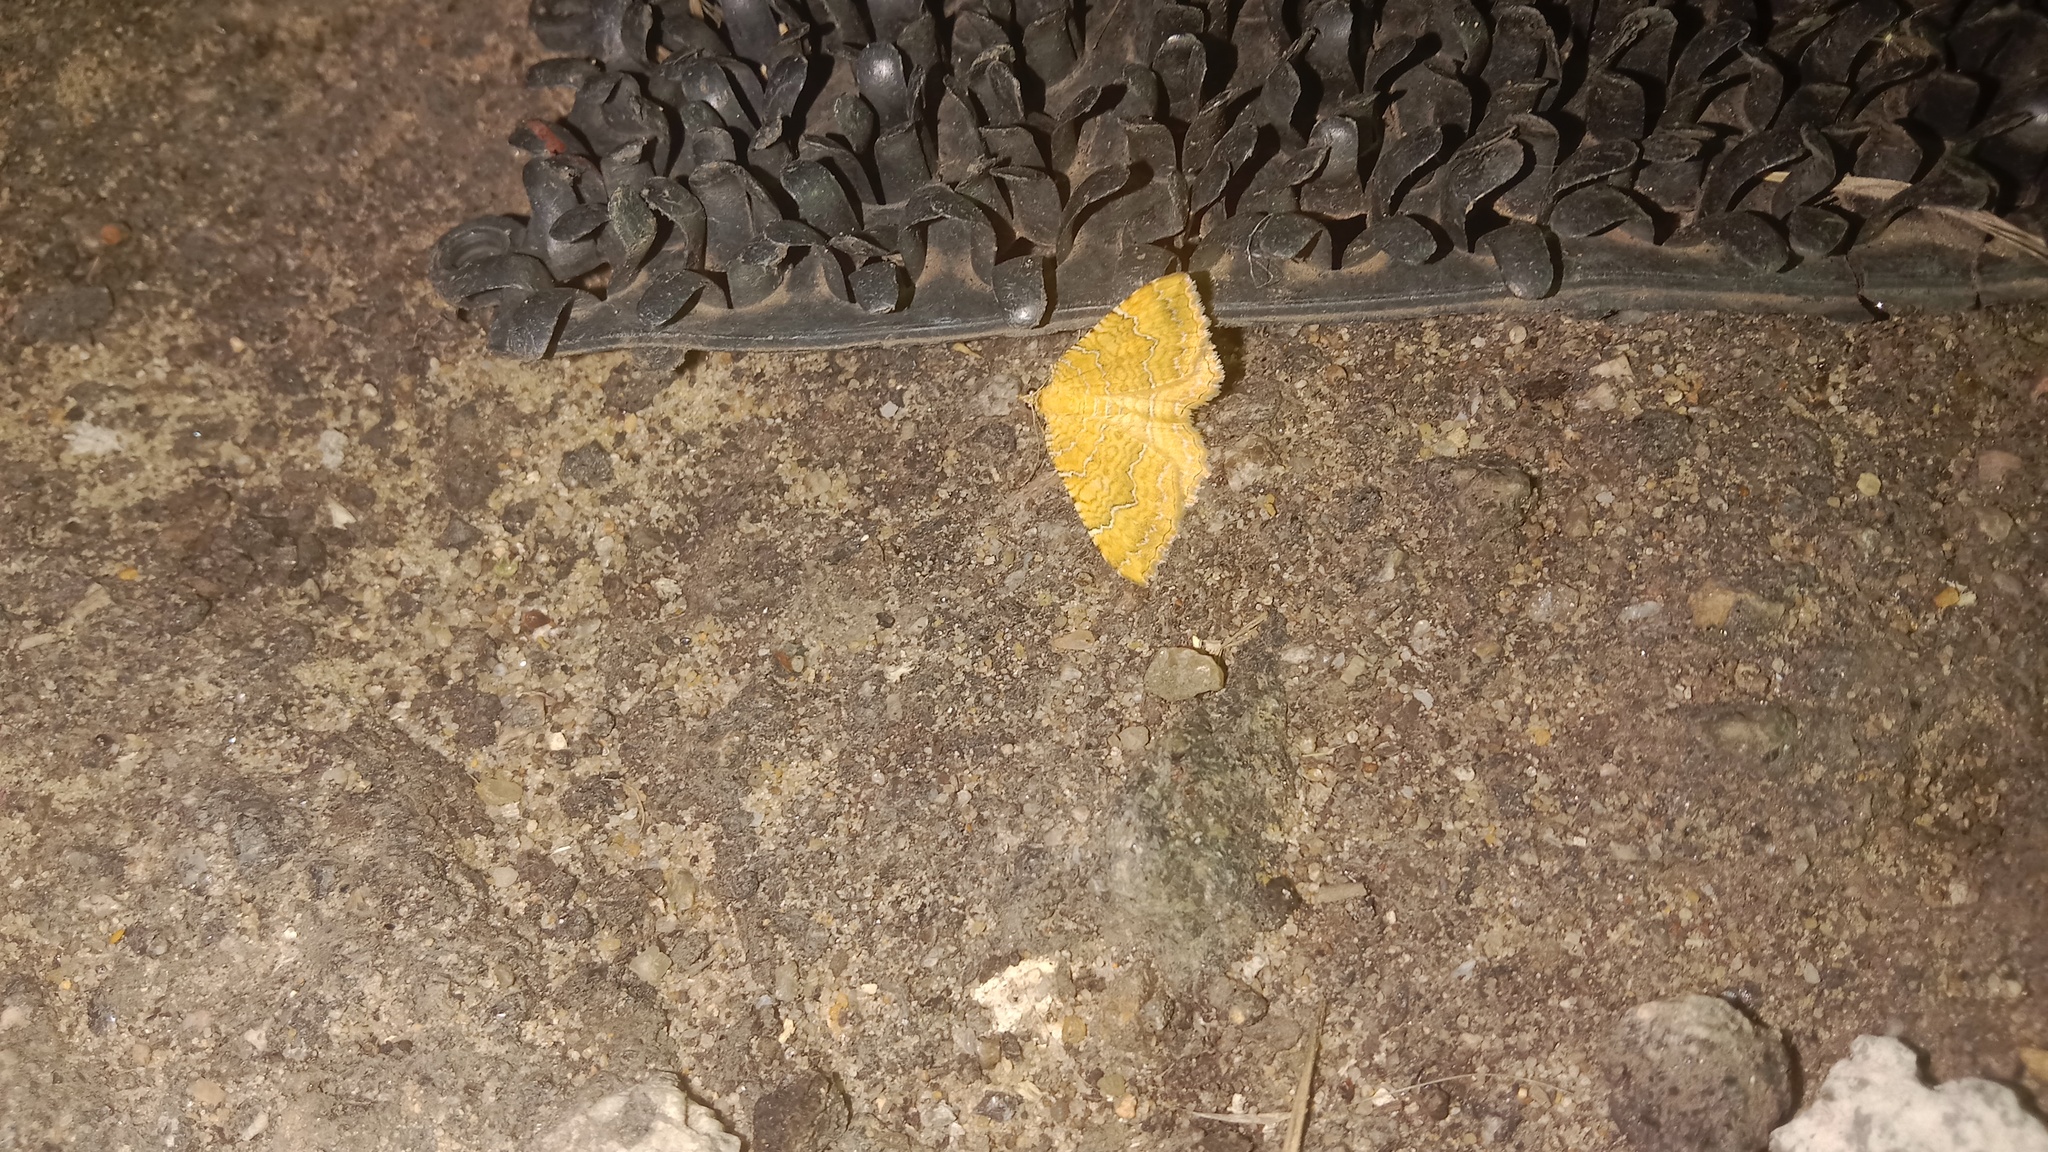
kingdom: Animalia
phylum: Arthropoda
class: Insecta
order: Lepidoptera
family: Geometridae
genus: Camptogramma
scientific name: Camptogramma bilineata
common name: Yellow shell
